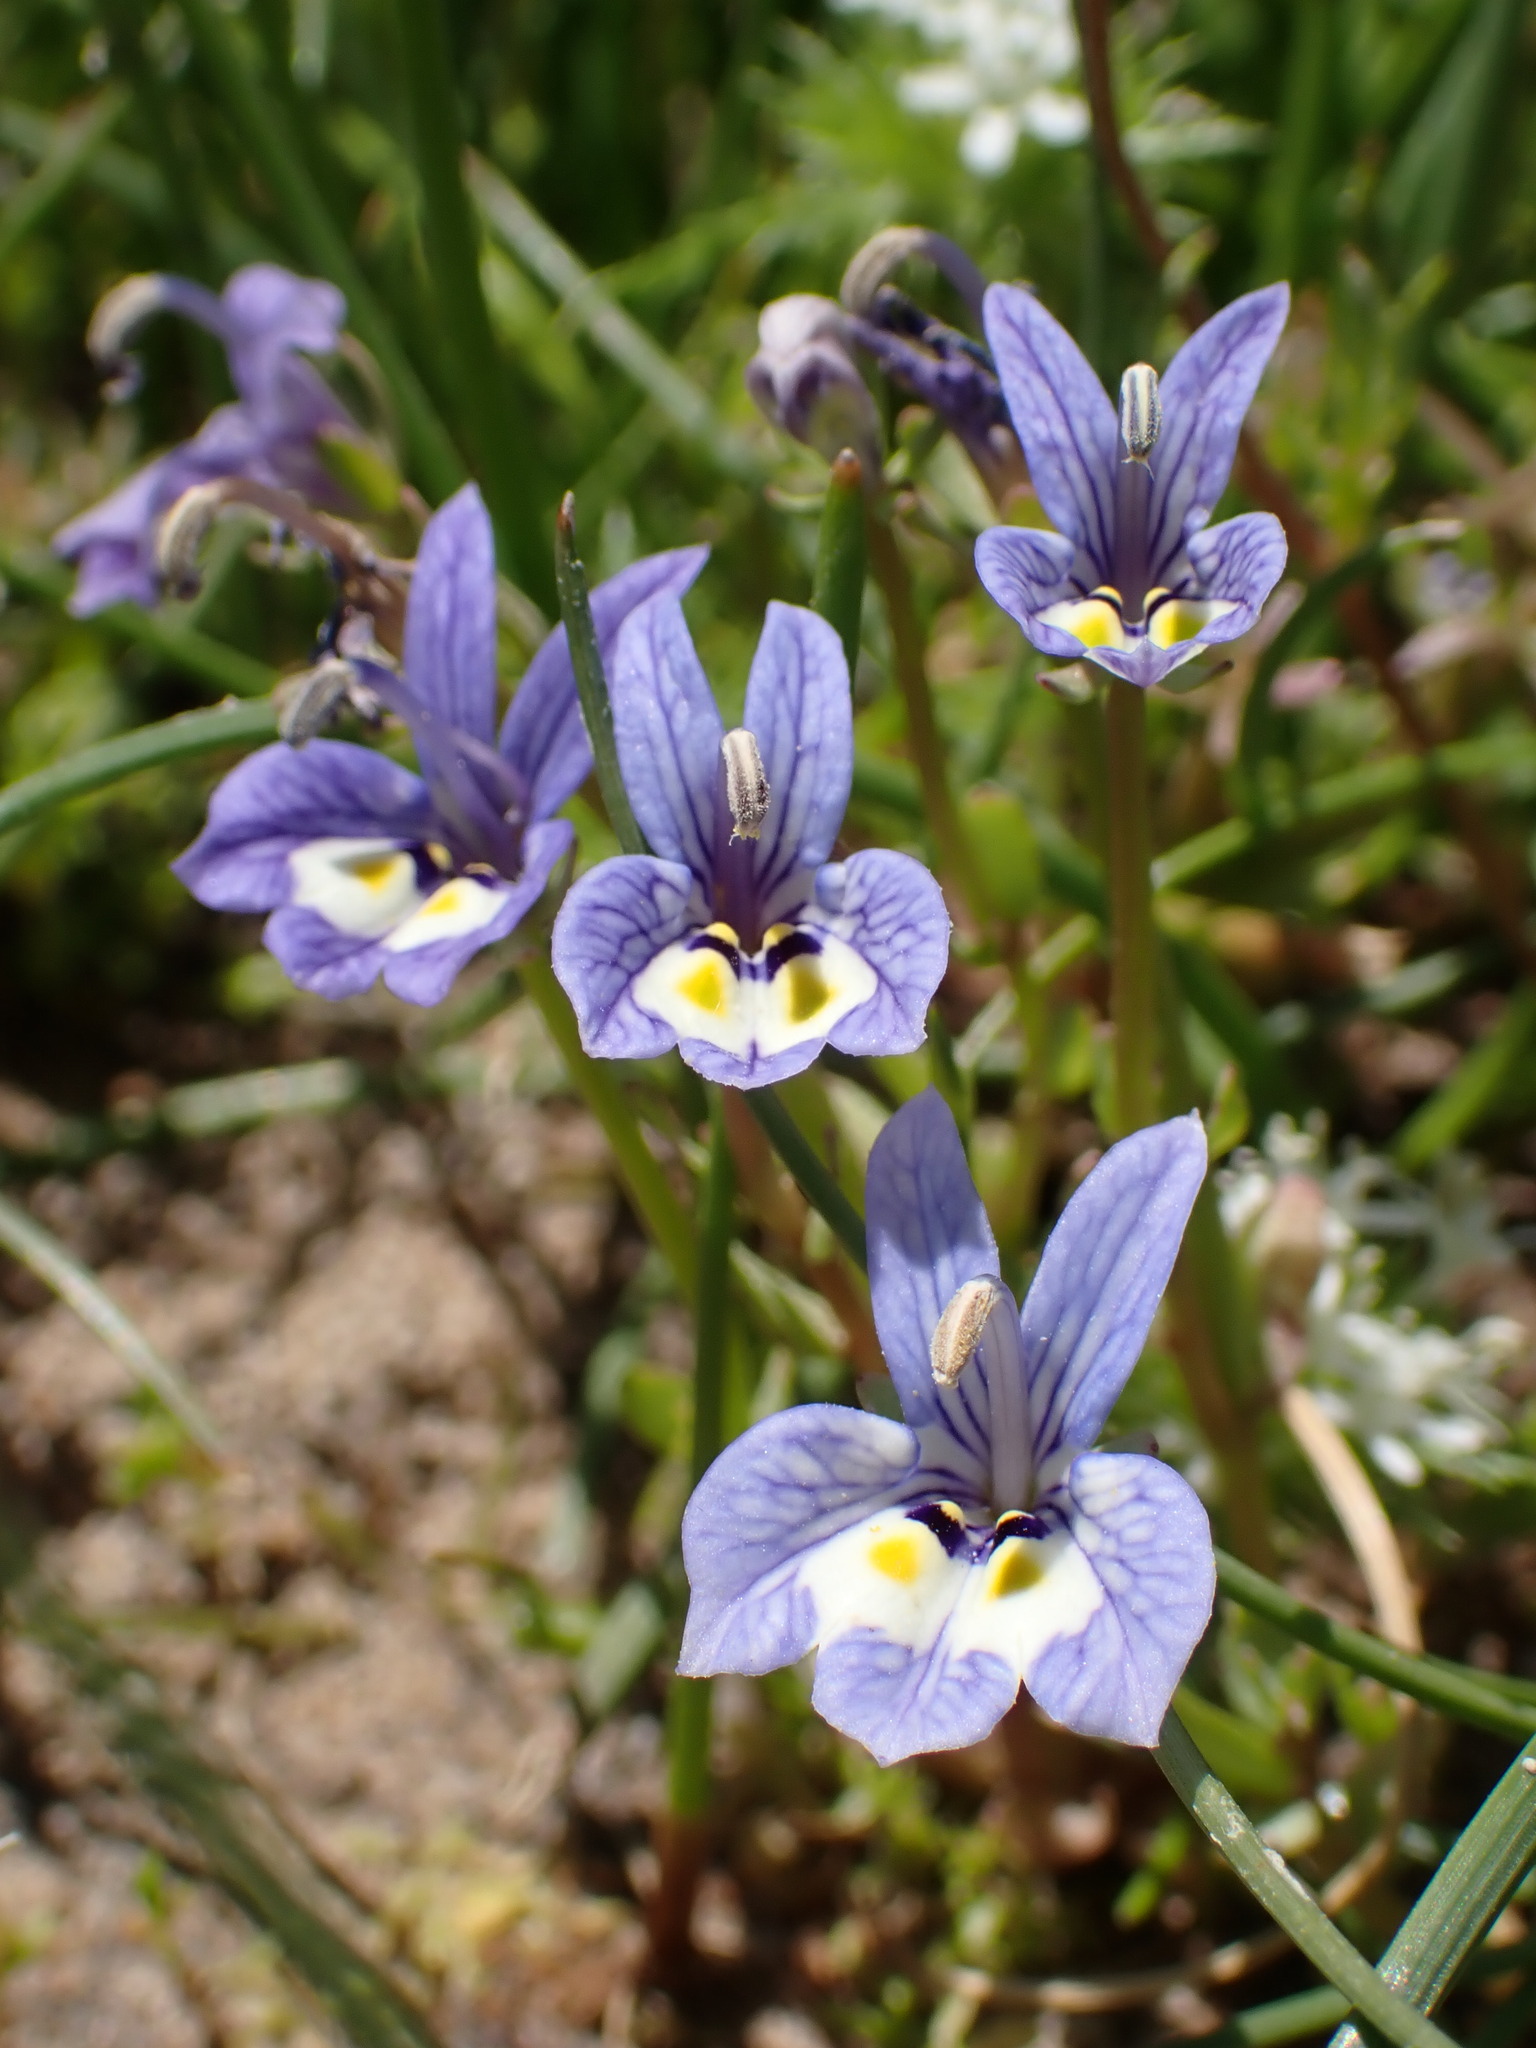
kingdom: Plantae
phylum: Tracheophyta
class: Magnoliopsida
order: Asterales
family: Campanulaceae
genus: Downingia
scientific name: Downingia insignis
